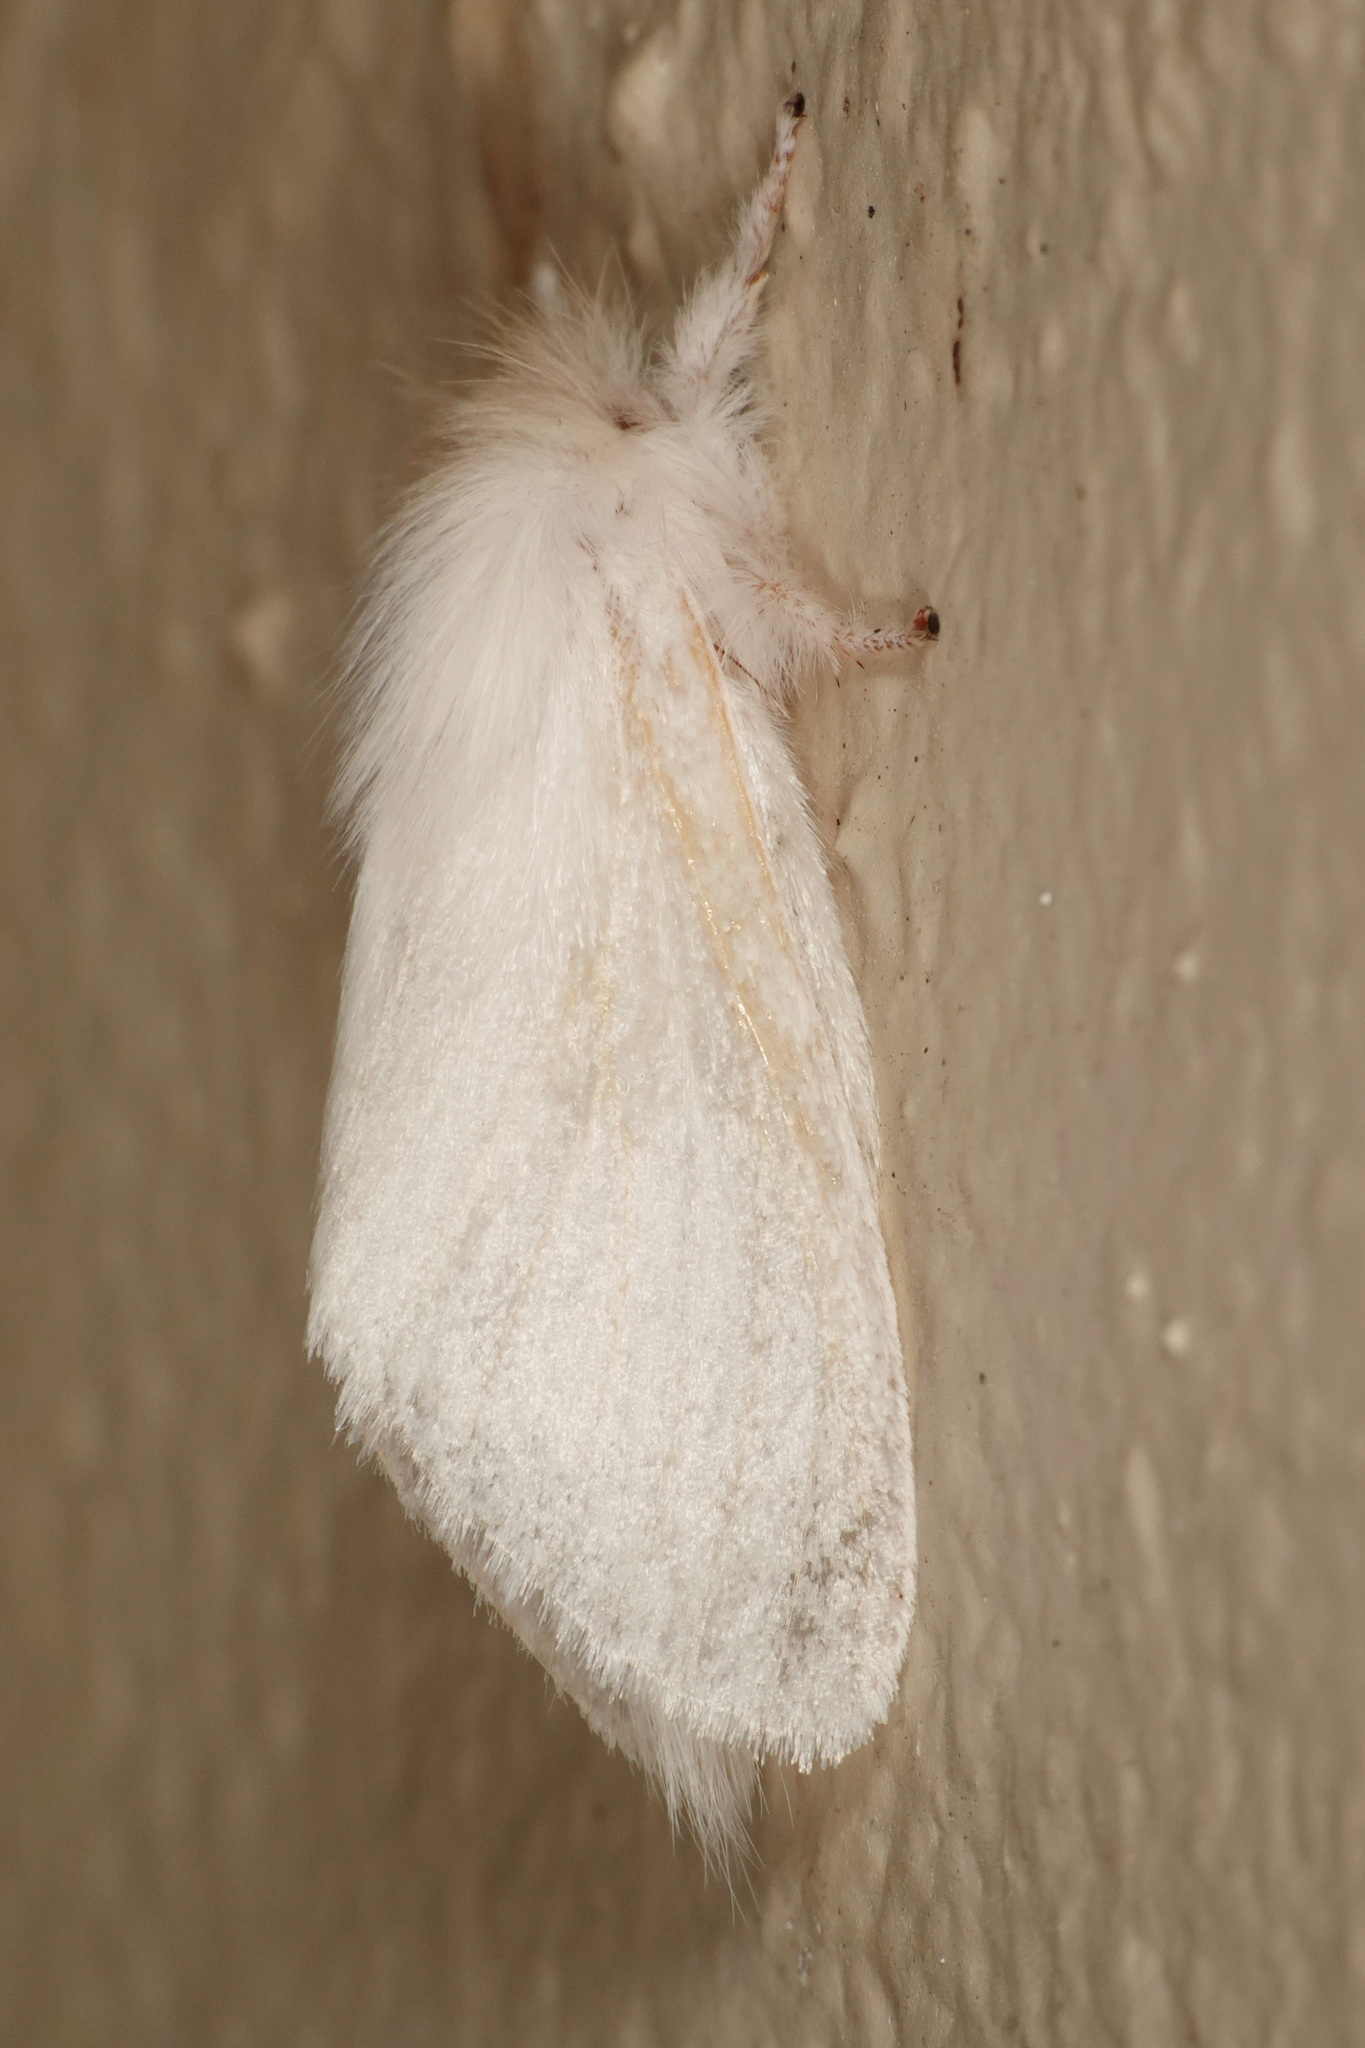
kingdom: Animalia
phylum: Arthropoda
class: Insecta
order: Lepidoptera
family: Notodontidae
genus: Trichiocercus
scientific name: Trichiocercus sparshalli
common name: Long-tailed satin
